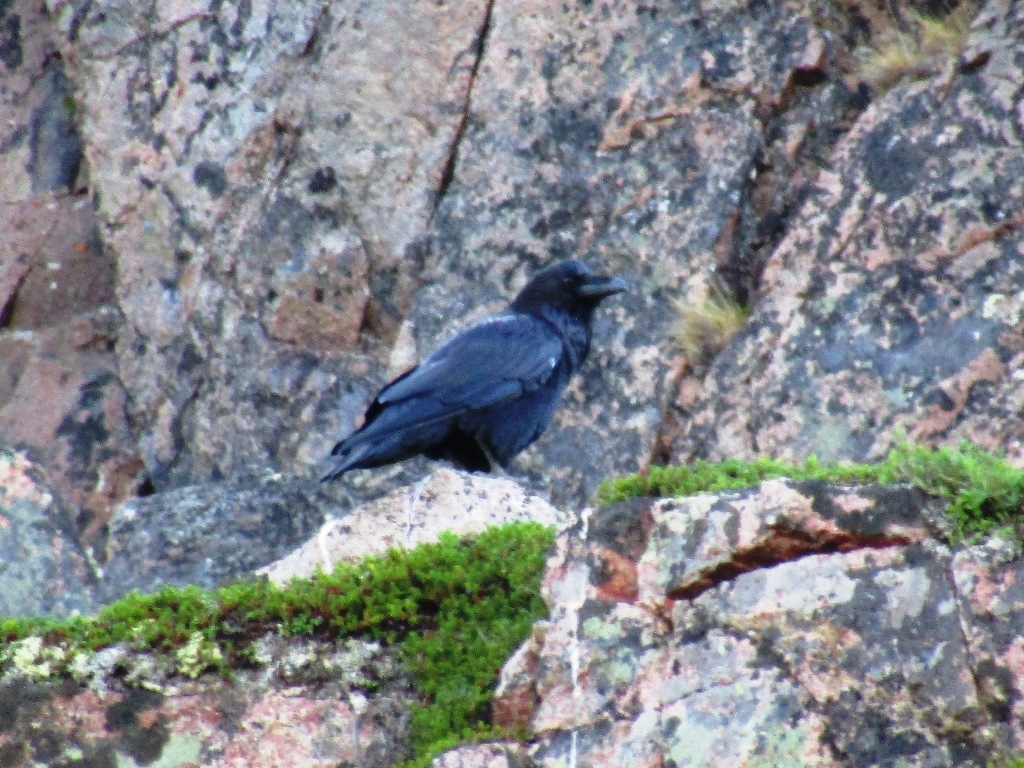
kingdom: Animalia
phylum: Chordata
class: Aves
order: Passeriformes
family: Corvidae
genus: Corvus
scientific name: Corvus corax
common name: Common raven
